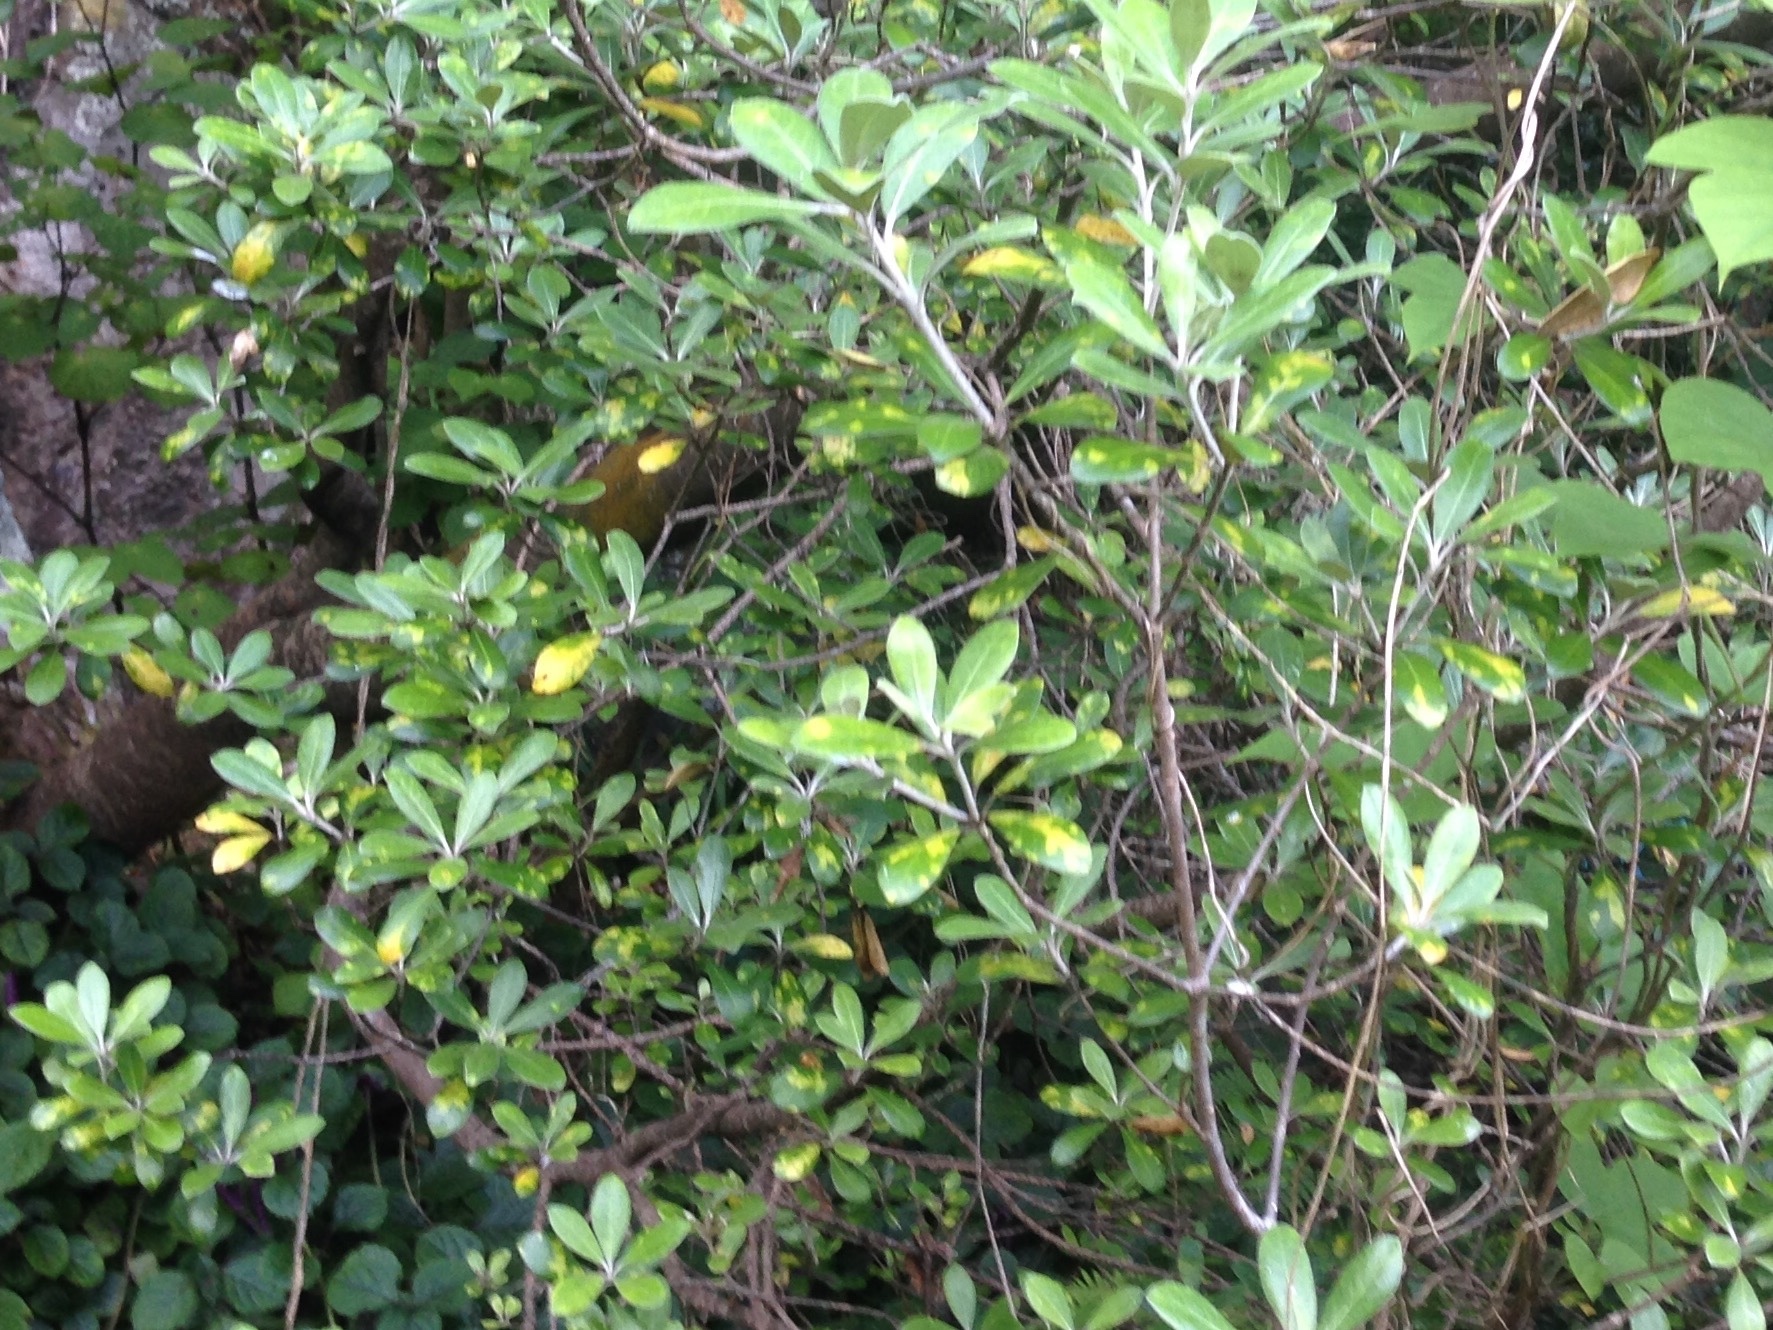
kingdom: Plantae
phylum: Tracheophyta
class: Magnoliopsida
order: Apiales
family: Pittosporaceae
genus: Pittosporum
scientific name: Pittosporum crassifolium
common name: Karo
